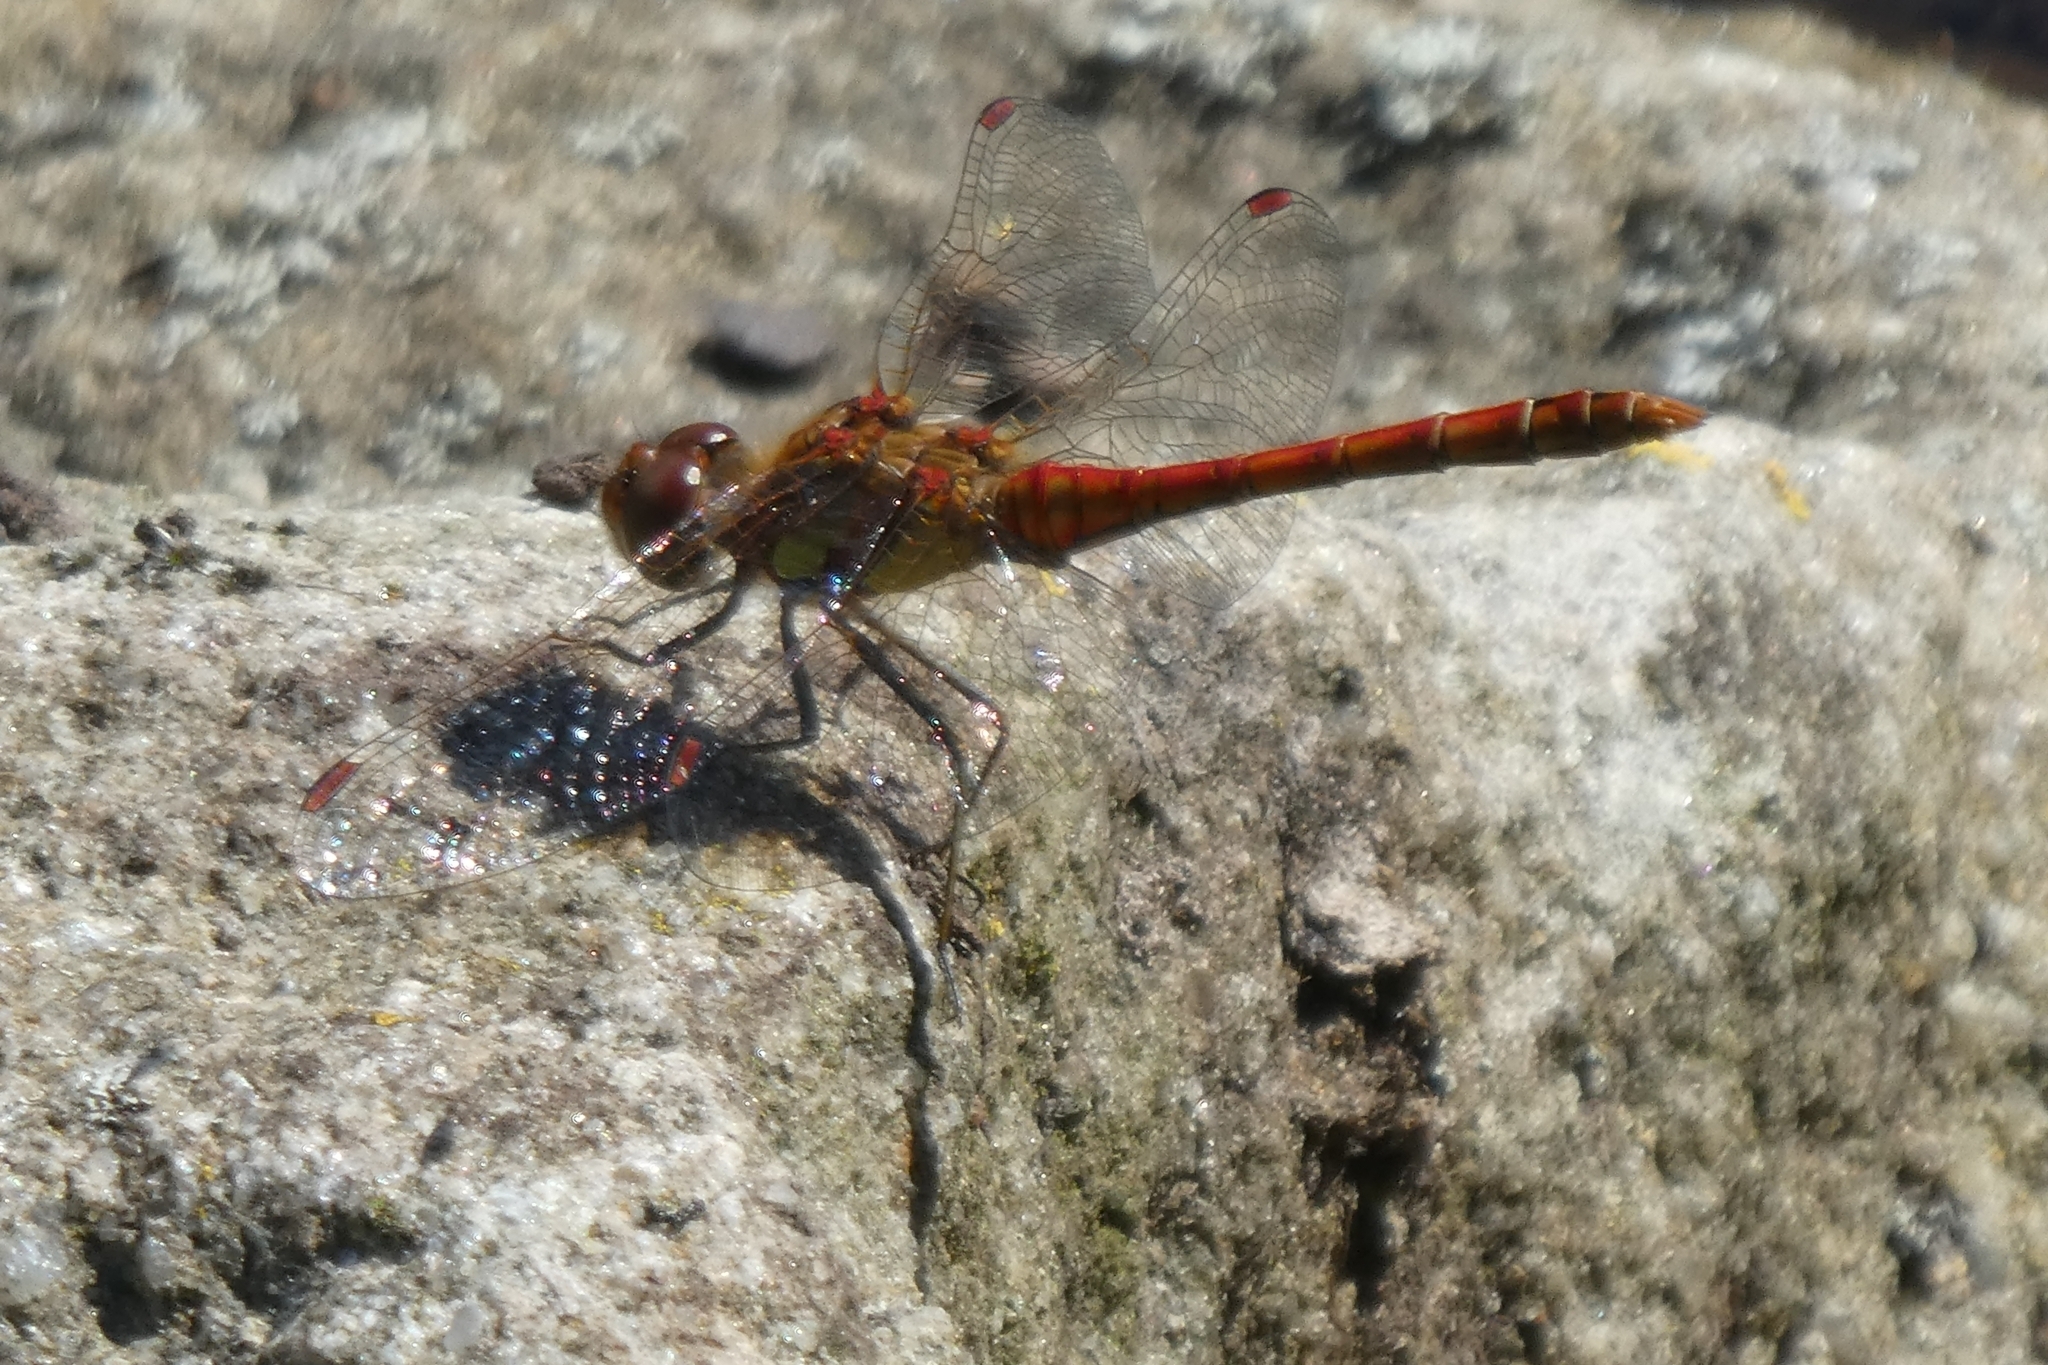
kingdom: Animalia
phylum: Arthropoda
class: Insecta
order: Odonata
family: Libellulidae
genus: Sympetrum
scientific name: Sympetrum striolatum
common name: Common darter
